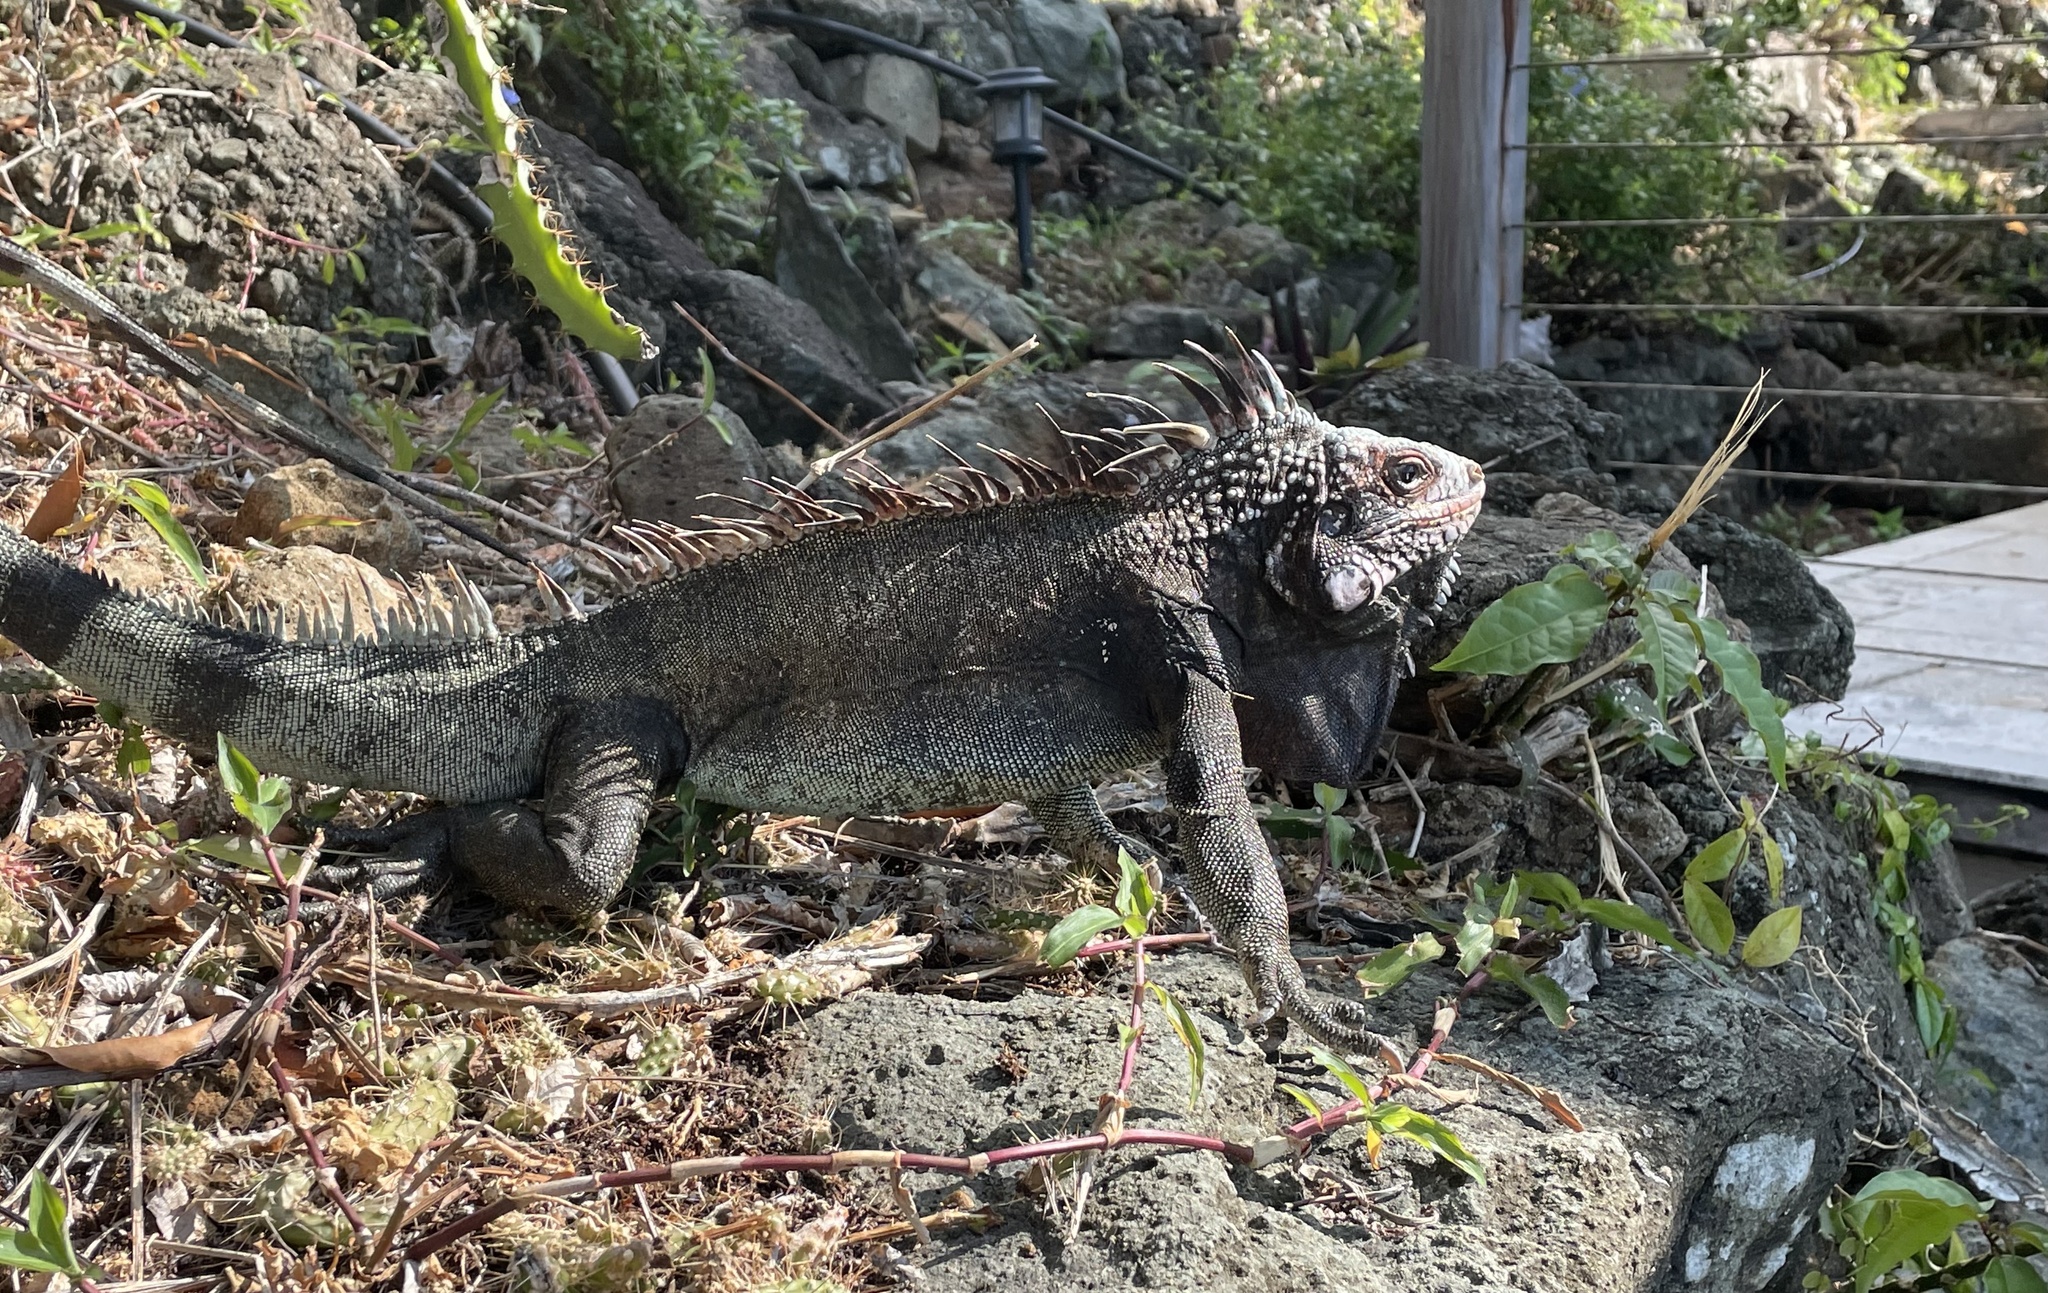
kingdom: Animalia
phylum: Chordata
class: Squamata
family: Iguanidae
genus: Iguana
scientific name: Iguana iguana
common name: Green iguana
